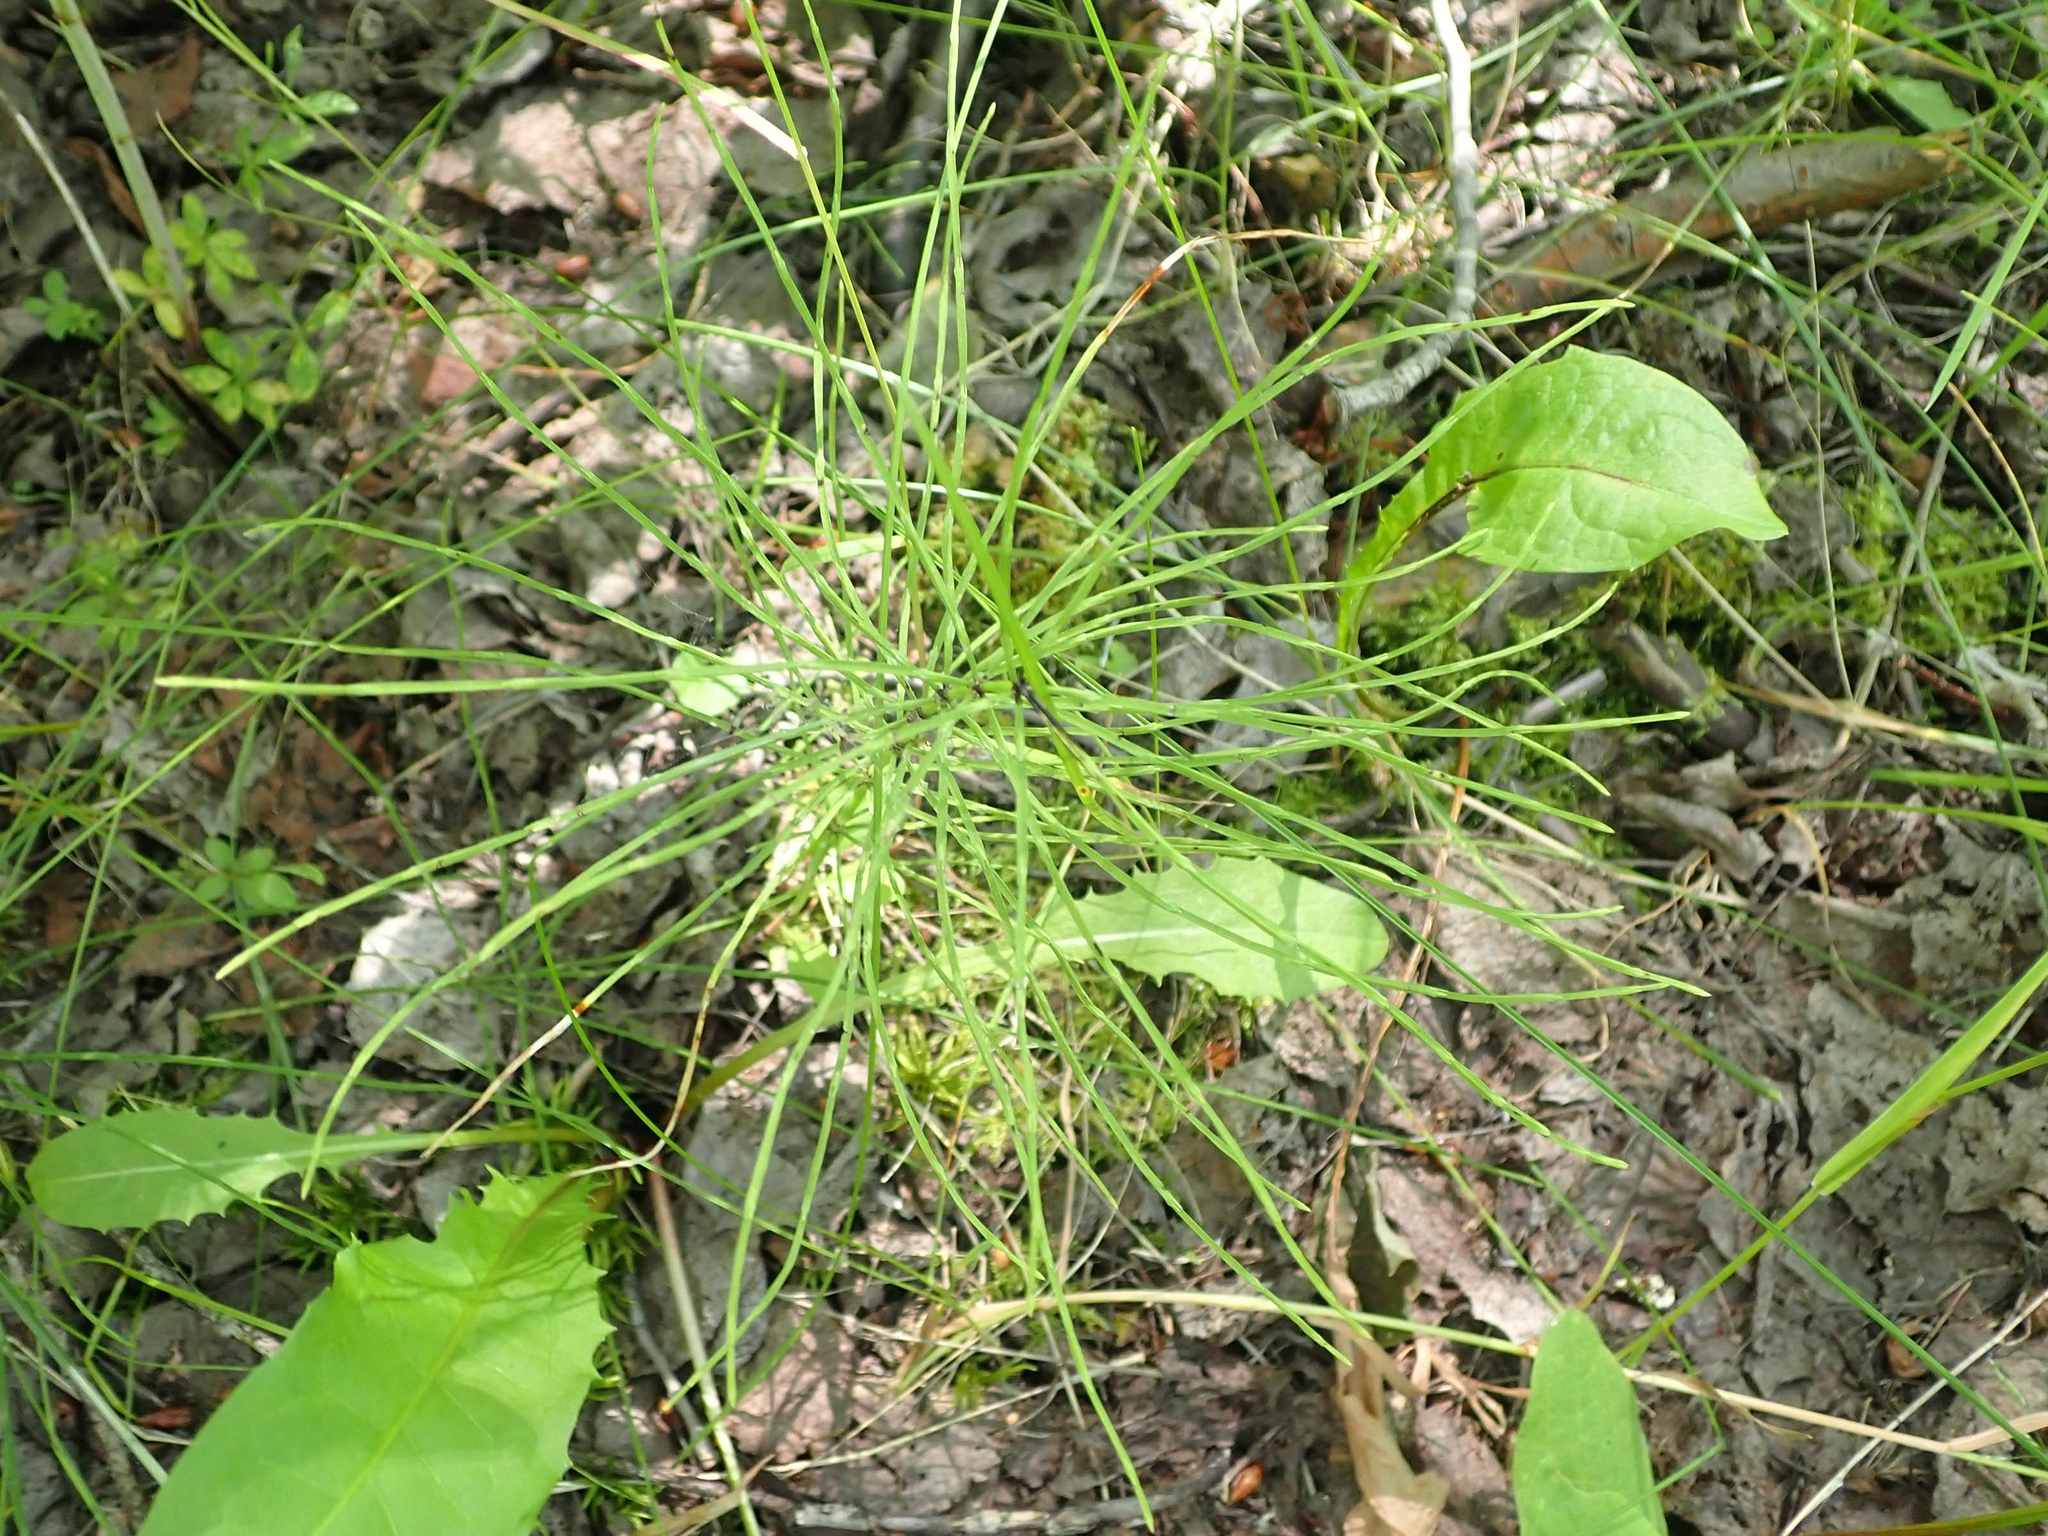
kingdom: Plantae
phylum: Tracheophyta
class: Polypodiopsida
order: Equisetales
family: Equisetaceae
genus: Equisetum
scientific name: Equisetum arvense
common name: Field horsetail
